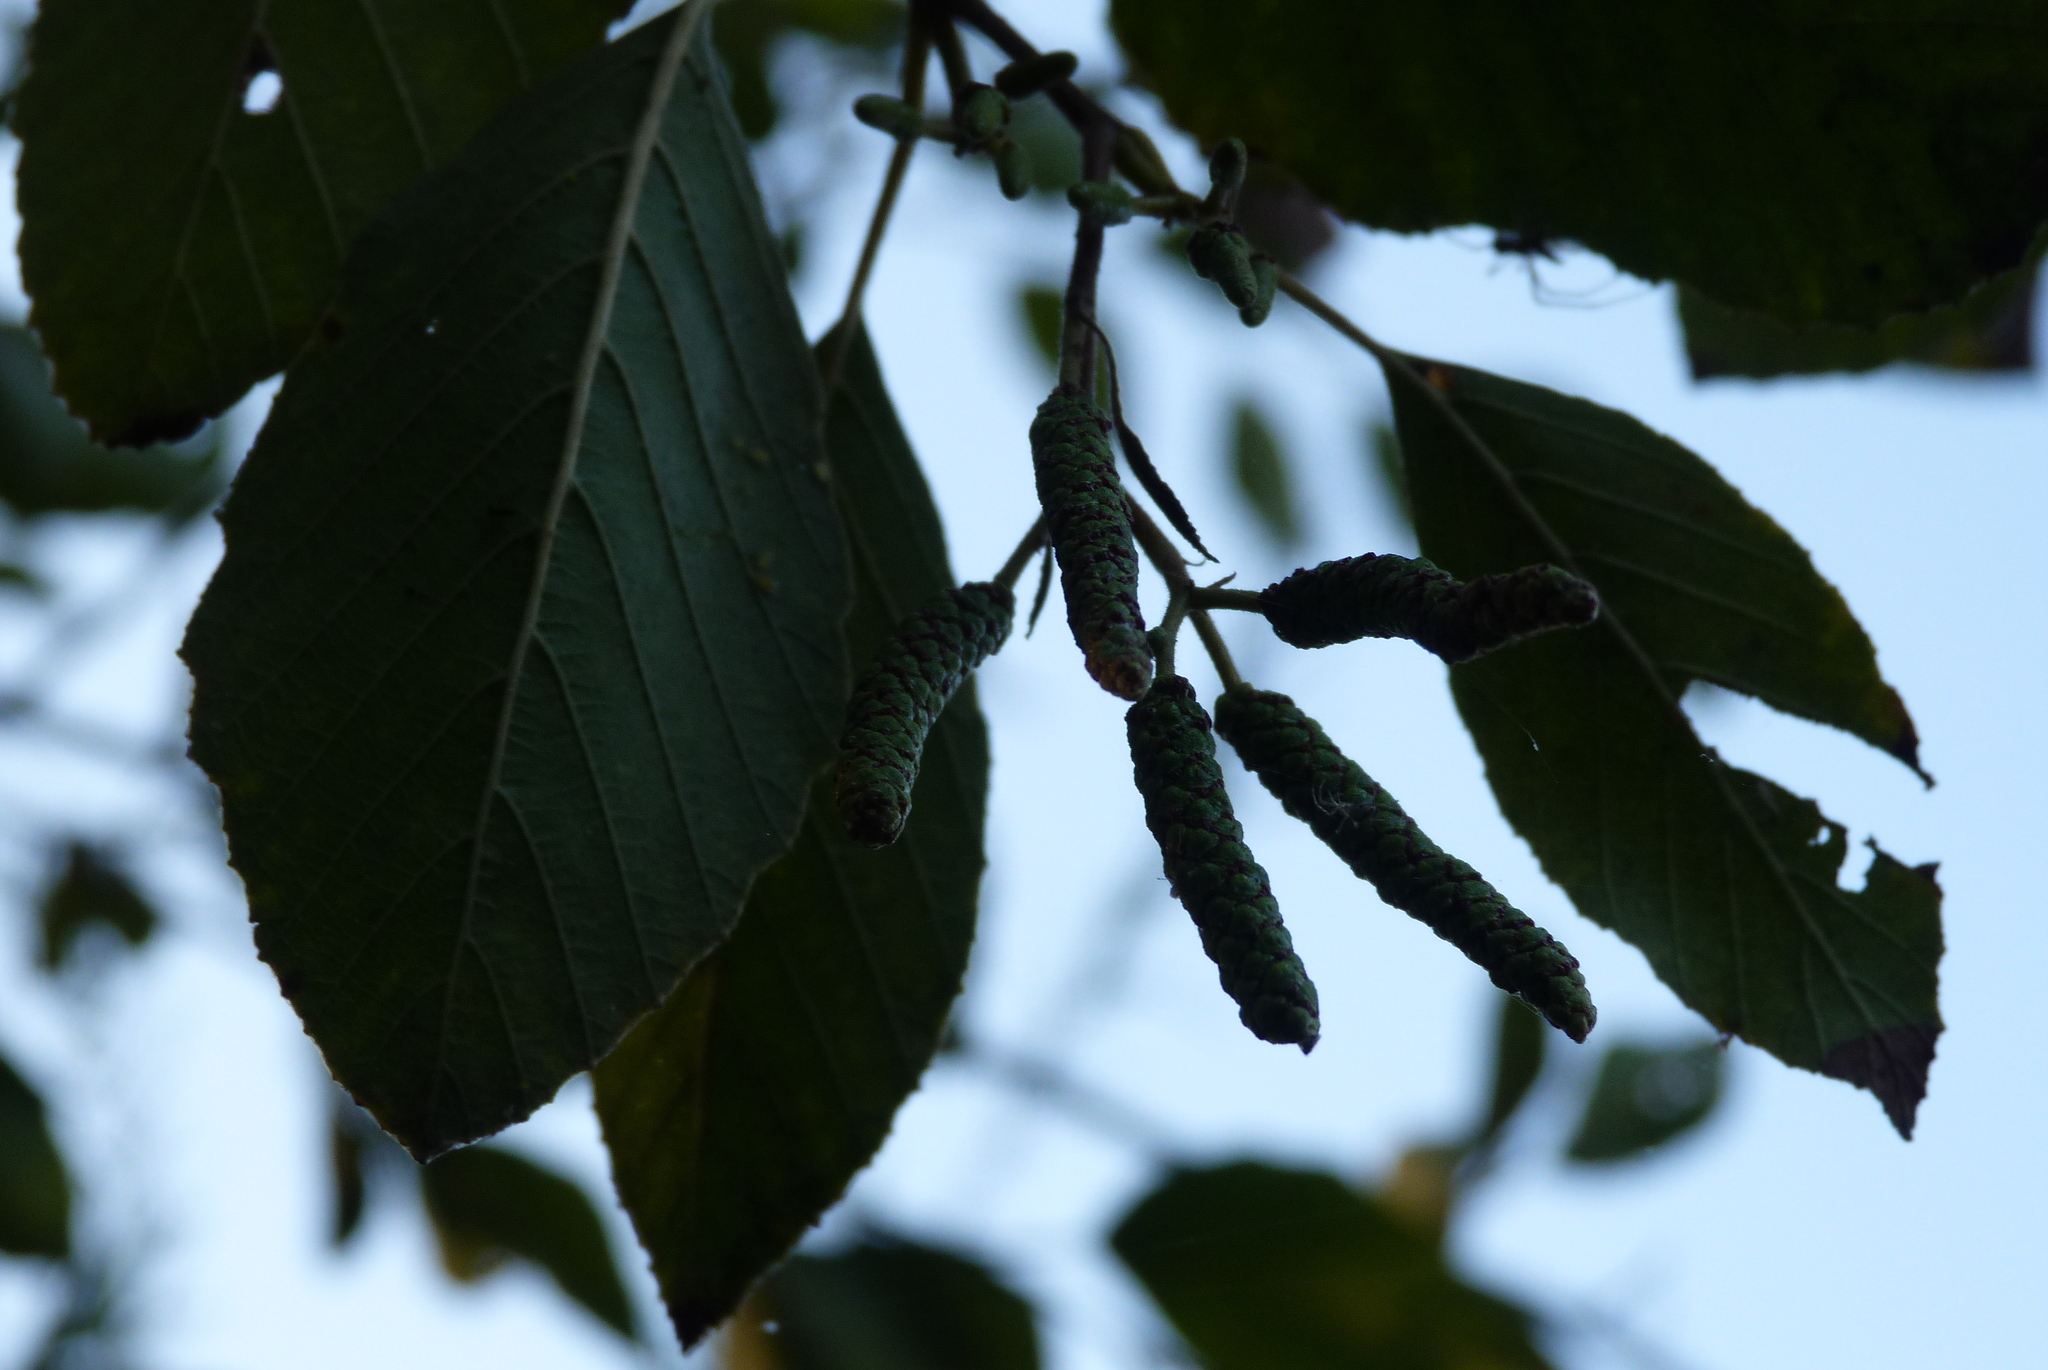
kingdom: Plantae
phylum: Tracheophyta
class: Magnoliopsida
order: Fagales
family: Betulaceae
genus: Alnus
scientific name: Alnus rhombifolia
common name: California alder
